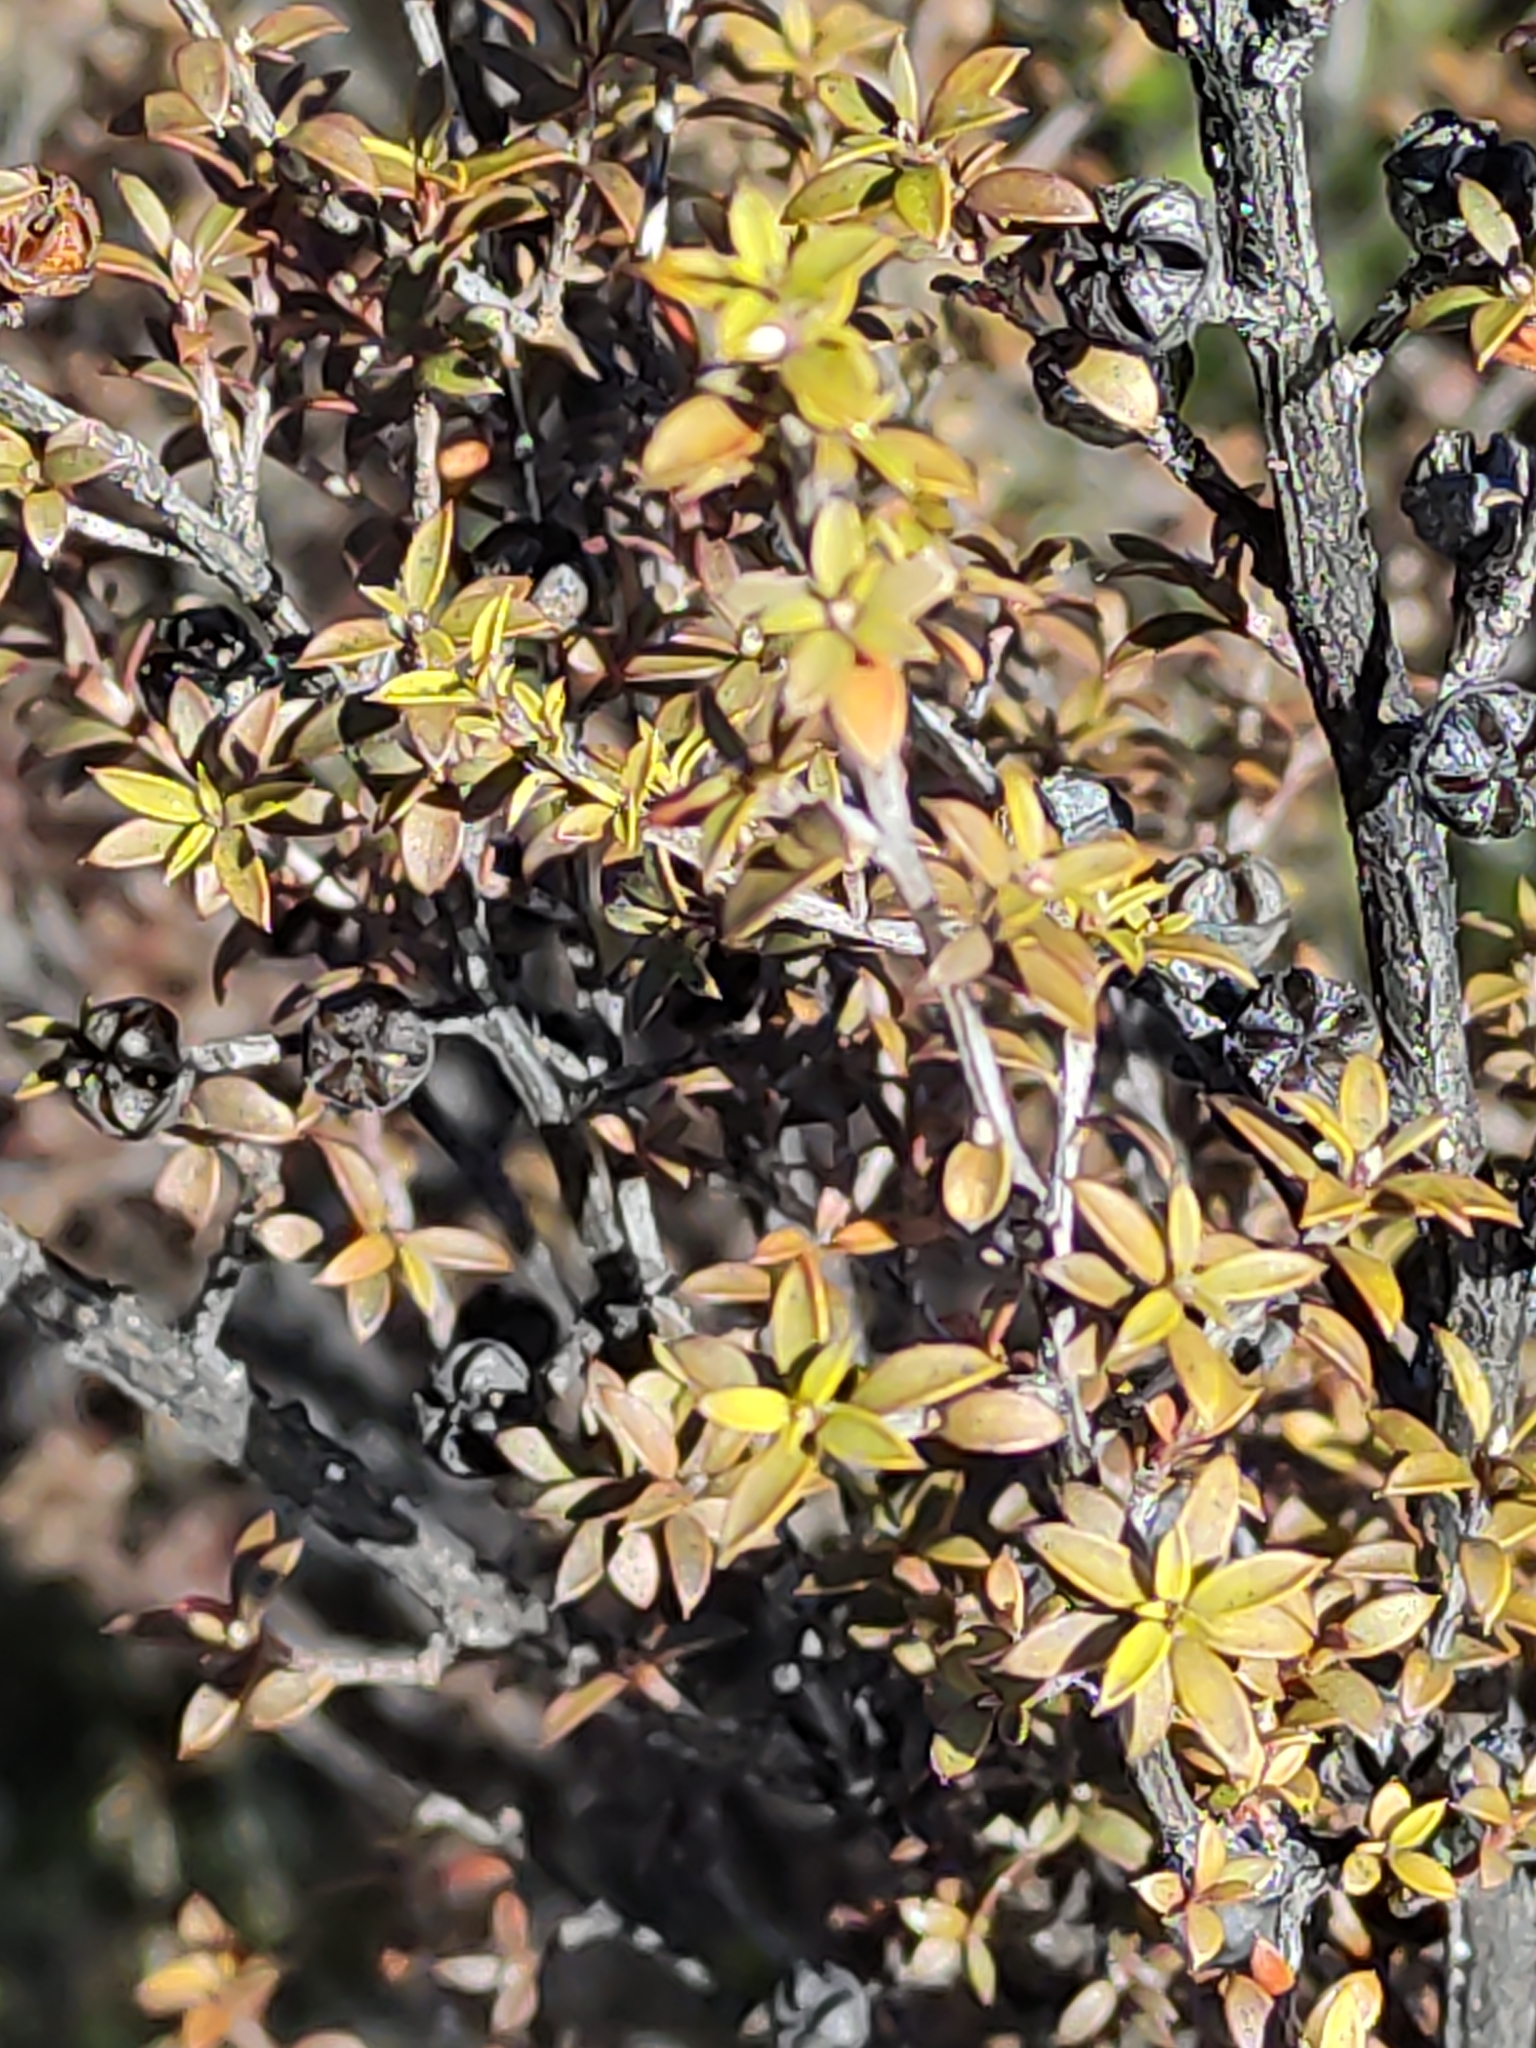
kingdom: Plantae
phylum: Tracheophyta
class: Magnoliopsida
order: Myrtales
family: Myrtaceae
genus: Leptospermum
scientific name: Leptospermum scoparium
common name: Broom tea-tree
